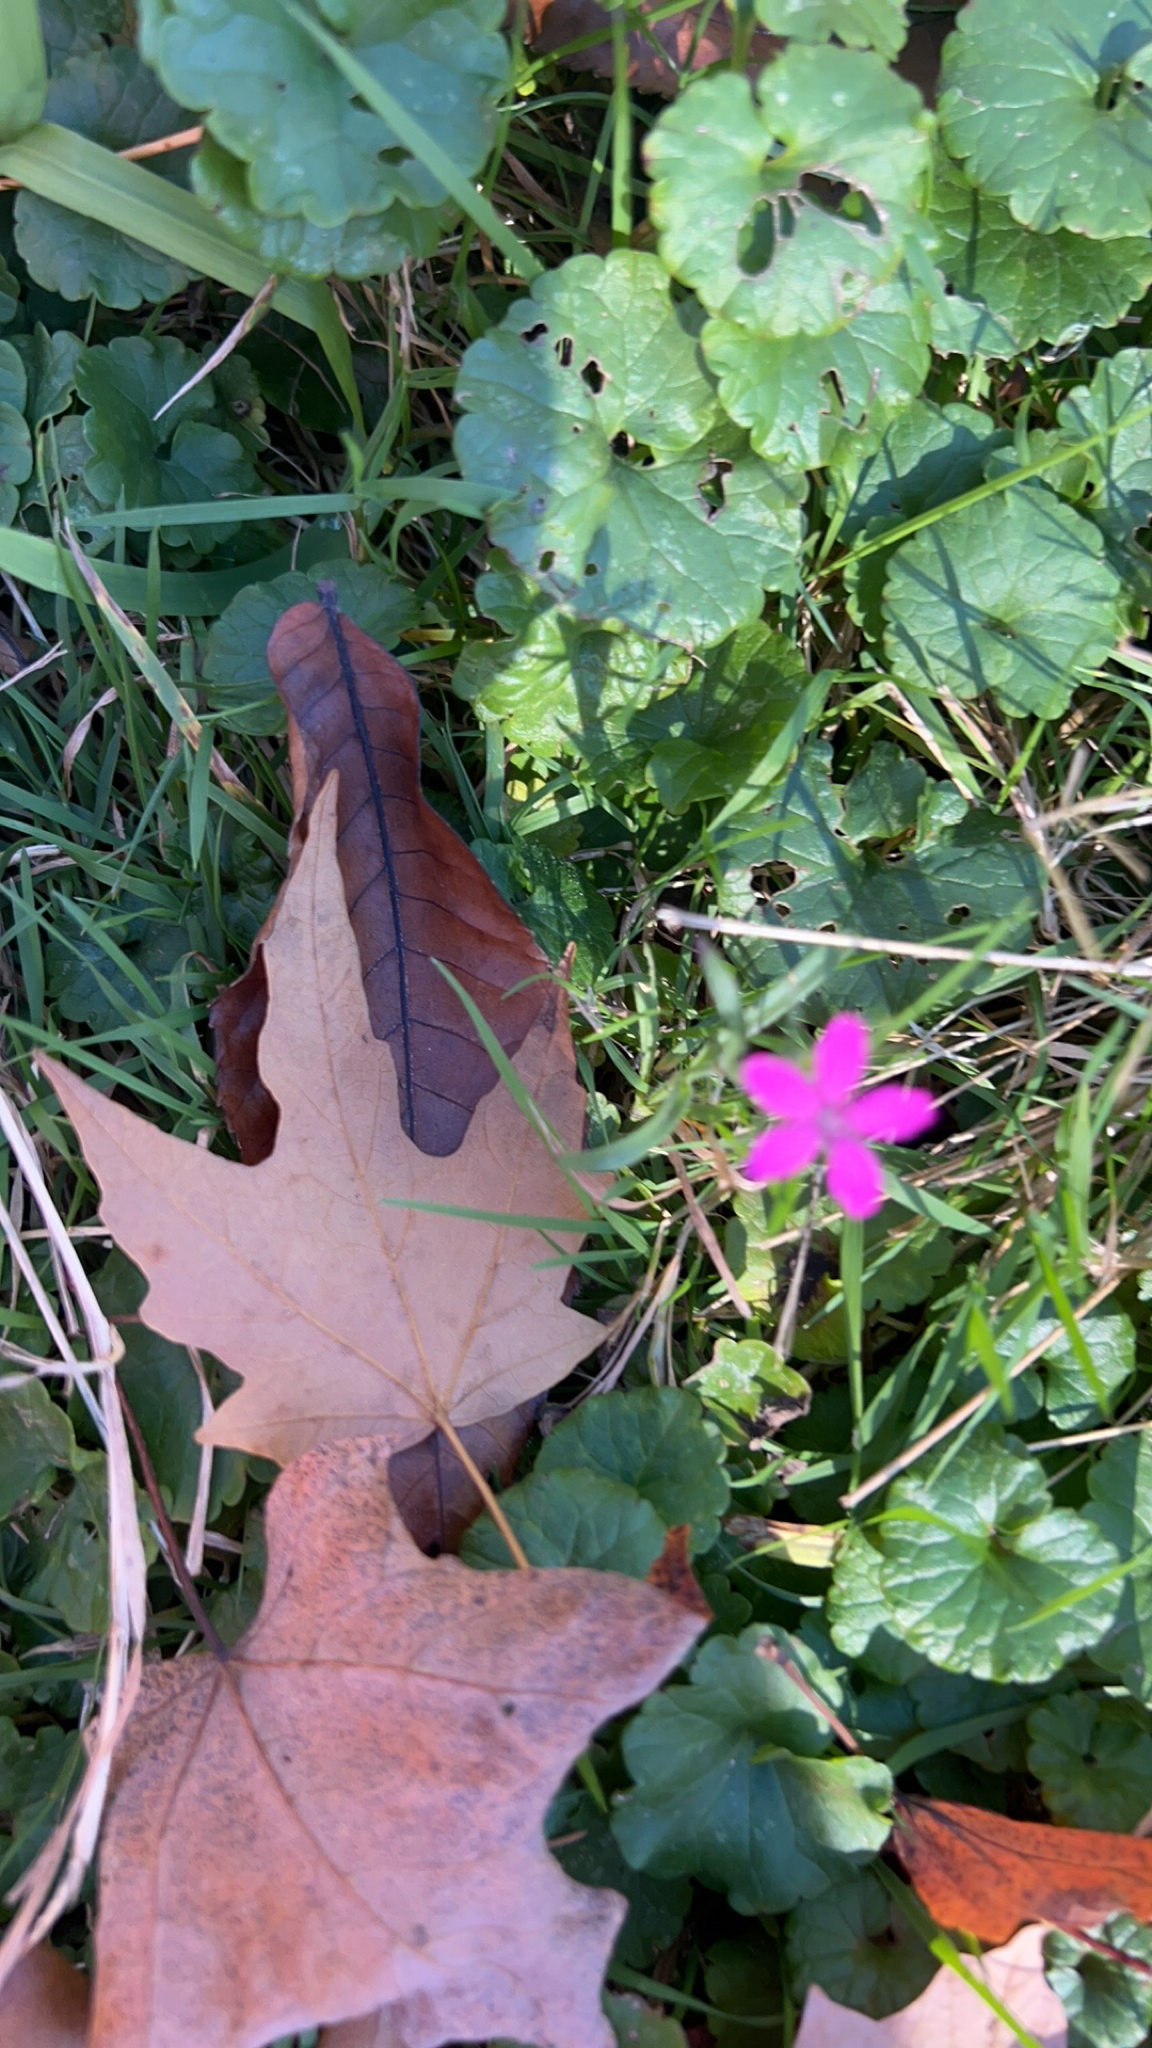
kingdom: Plantae
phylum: Tracheophyta
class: Magnoliopsida
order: Caryophyllales
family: Caryophyllaceae
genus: Dianthus
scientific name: Dianthus armeria
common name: Deptford pink
